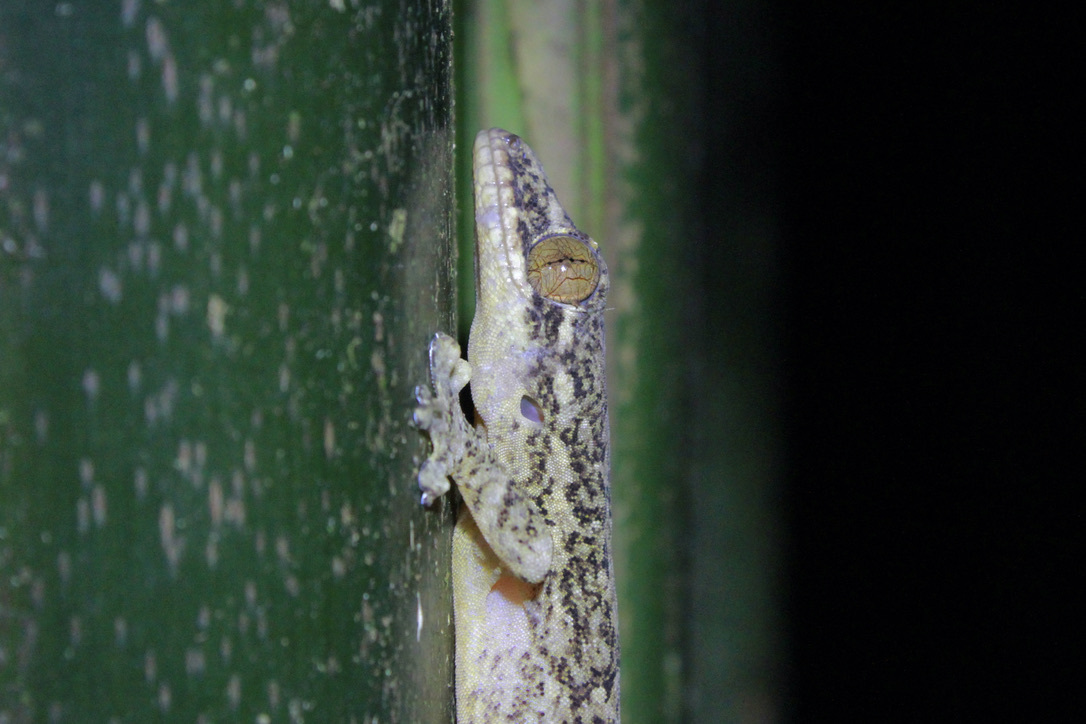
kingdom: Animalia
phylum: Chordata
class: Squamata
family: Phyllodactylidae
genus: Thecadactylus
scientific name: Thecadactylus rapicauda
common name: Turnip-tailed gecko
